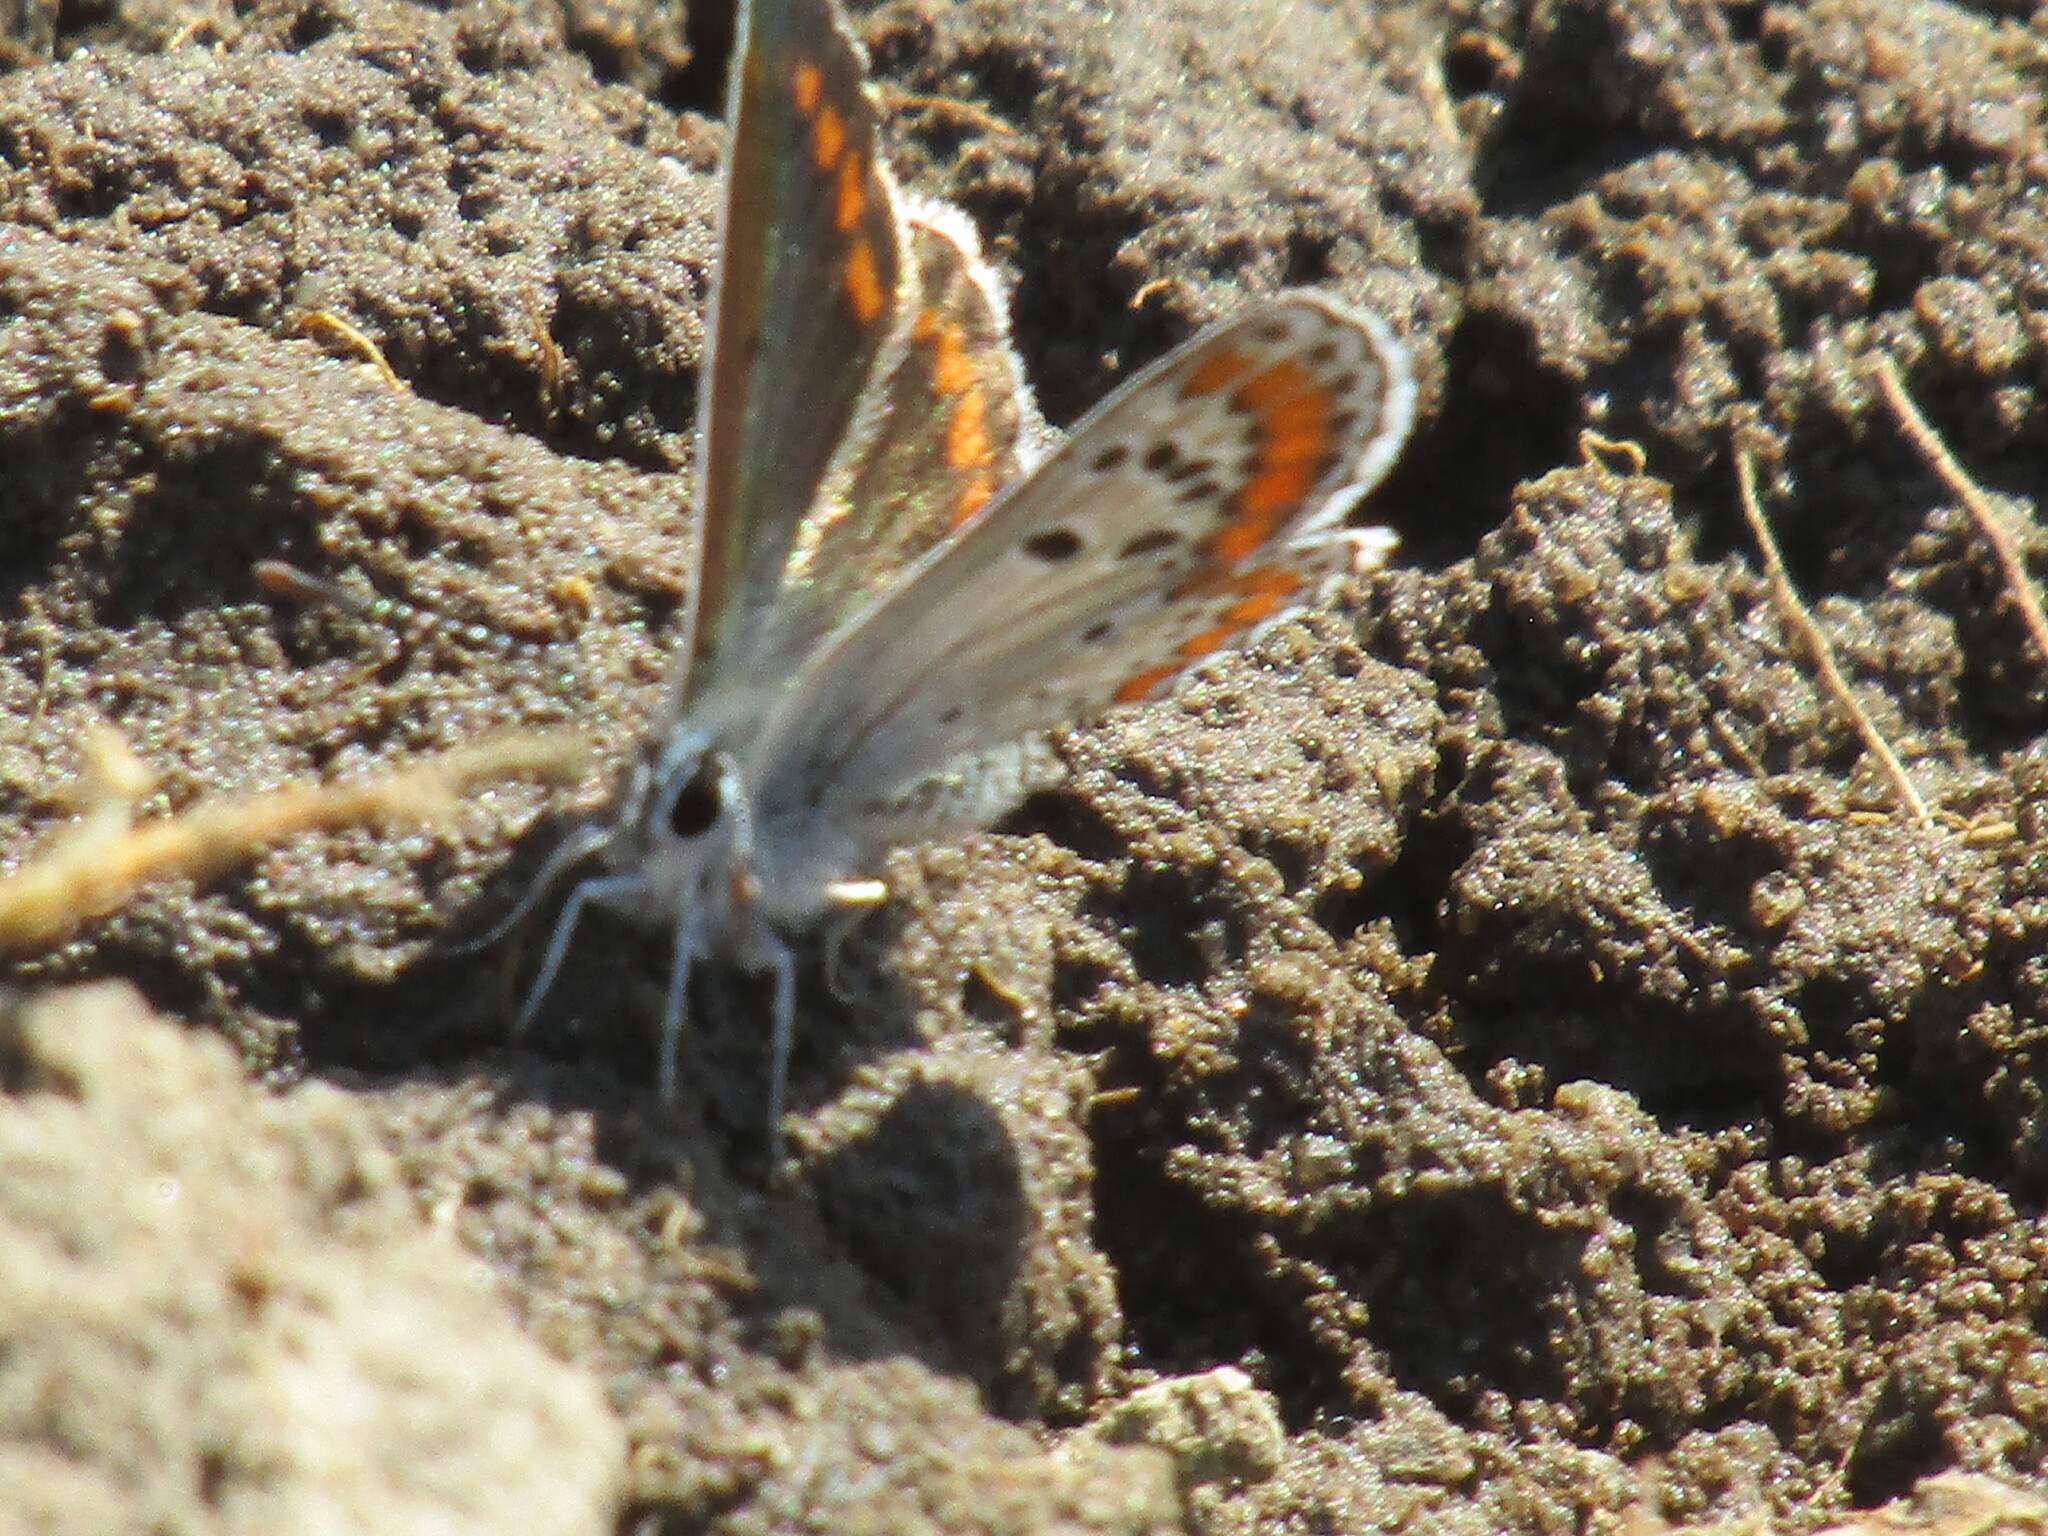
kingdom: Animalia
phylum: Arthropoda
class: Insecta
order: Lepidoptera
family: Lycaenidae
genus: Aricia
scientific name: Aricia agestis
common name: Brown argus
